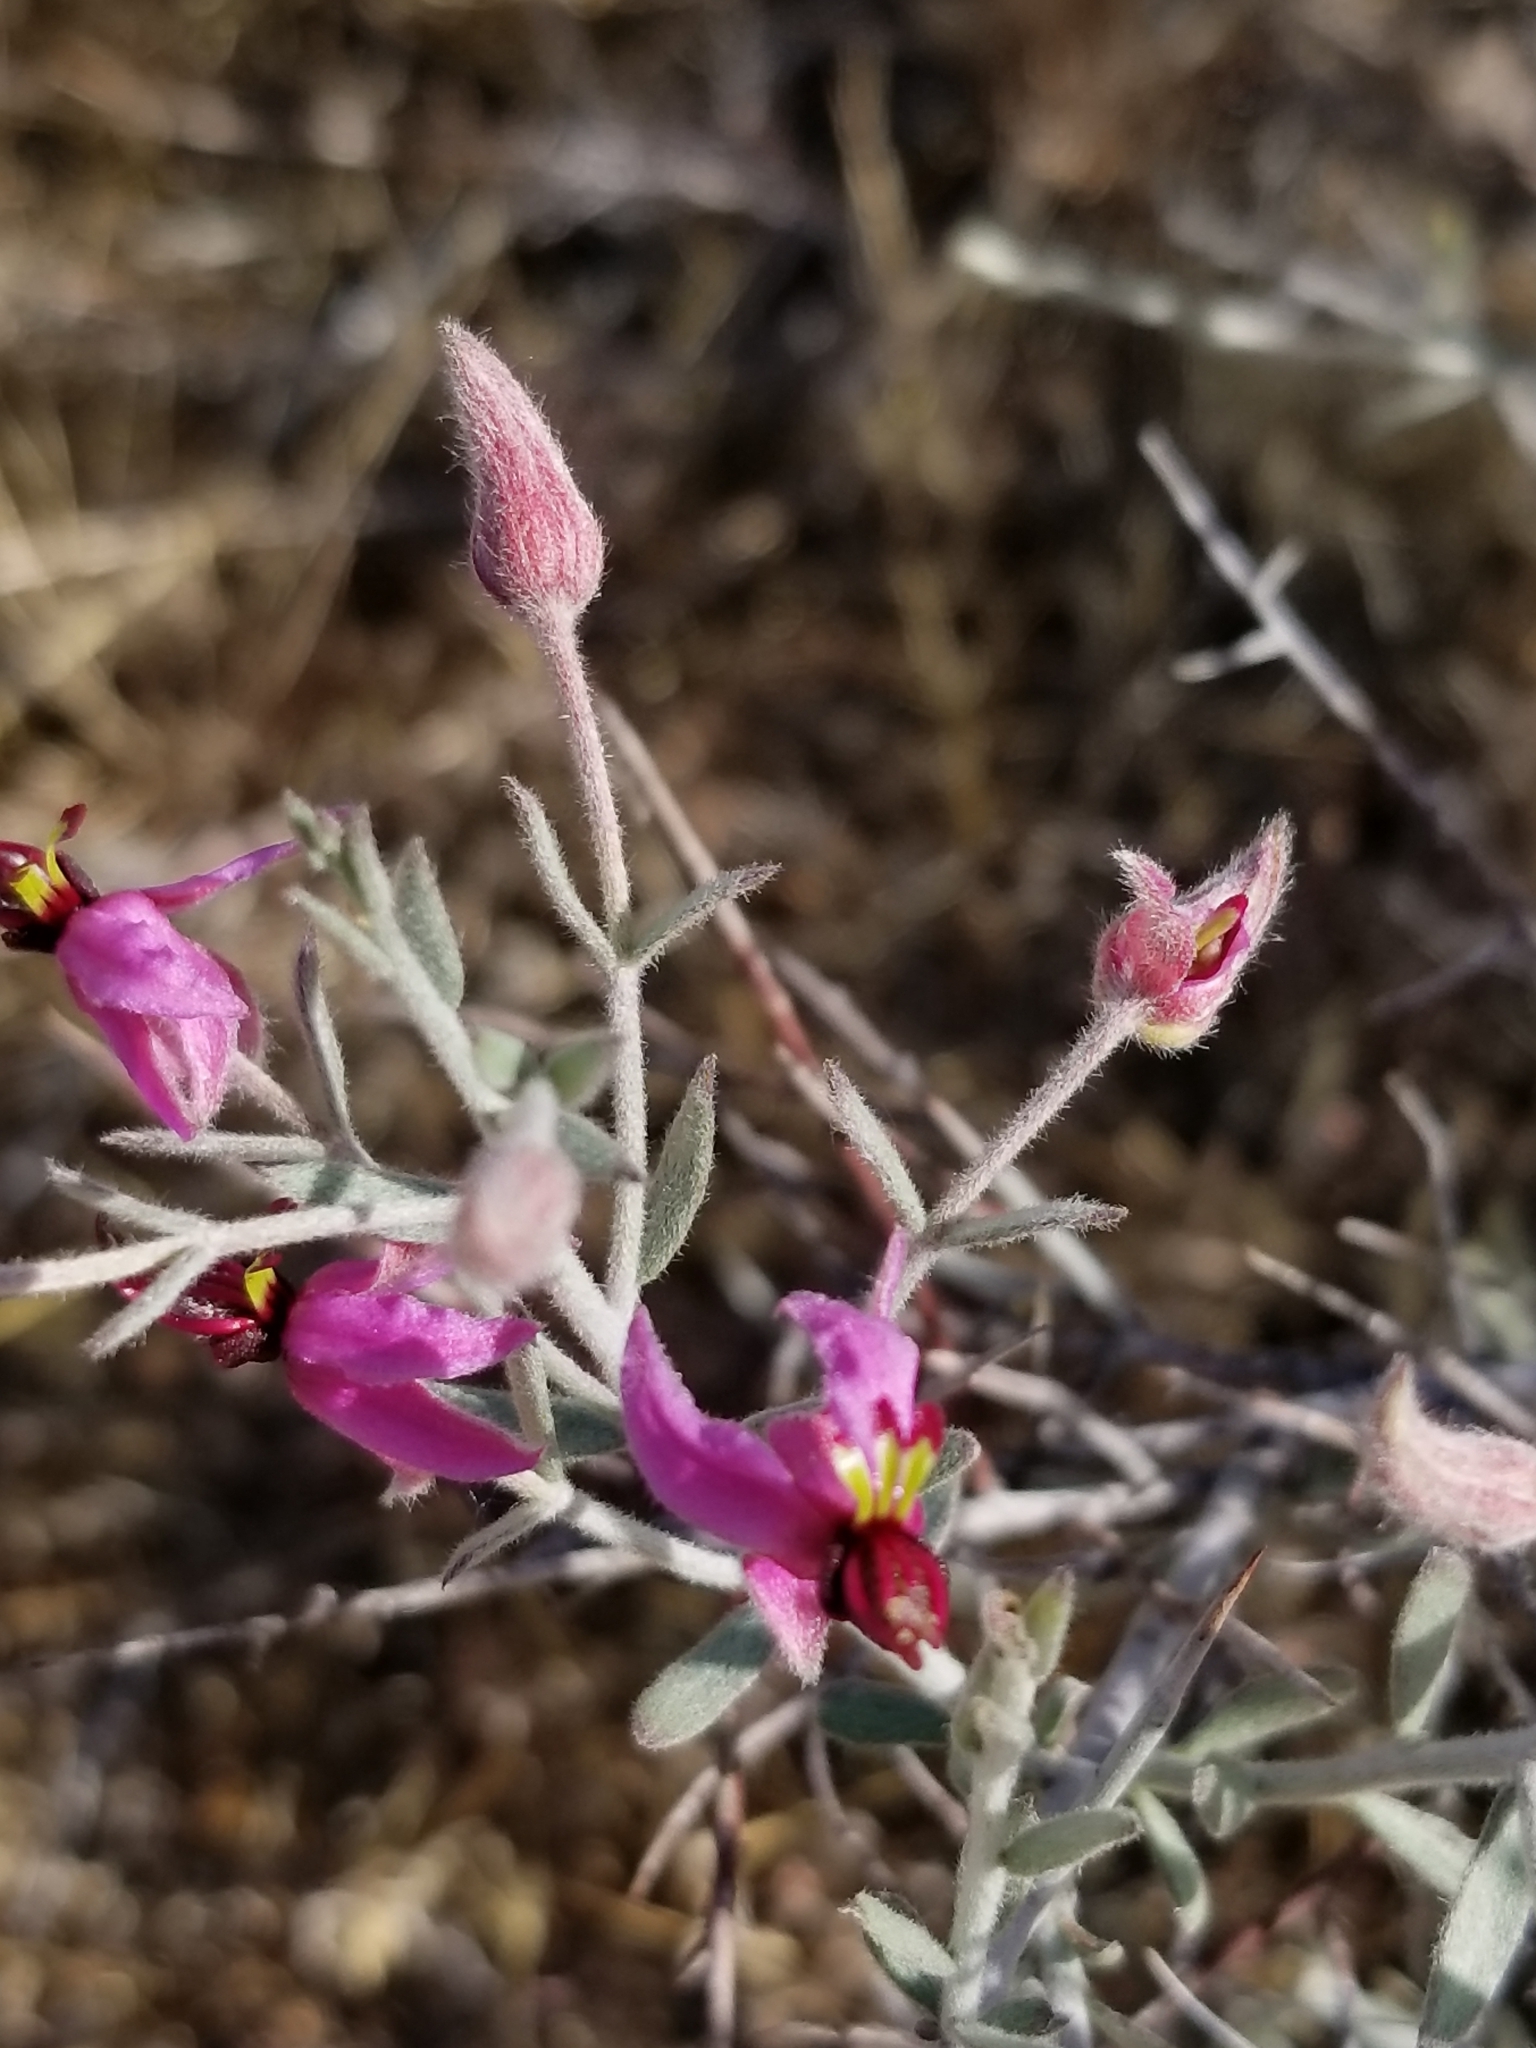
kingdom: Plantae
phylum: Tracheophyta
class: Magnoliopsida
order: Zygophyllales
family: Krameriaceae
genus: Krameria
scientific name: Krameria bicolor
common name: White ratany
